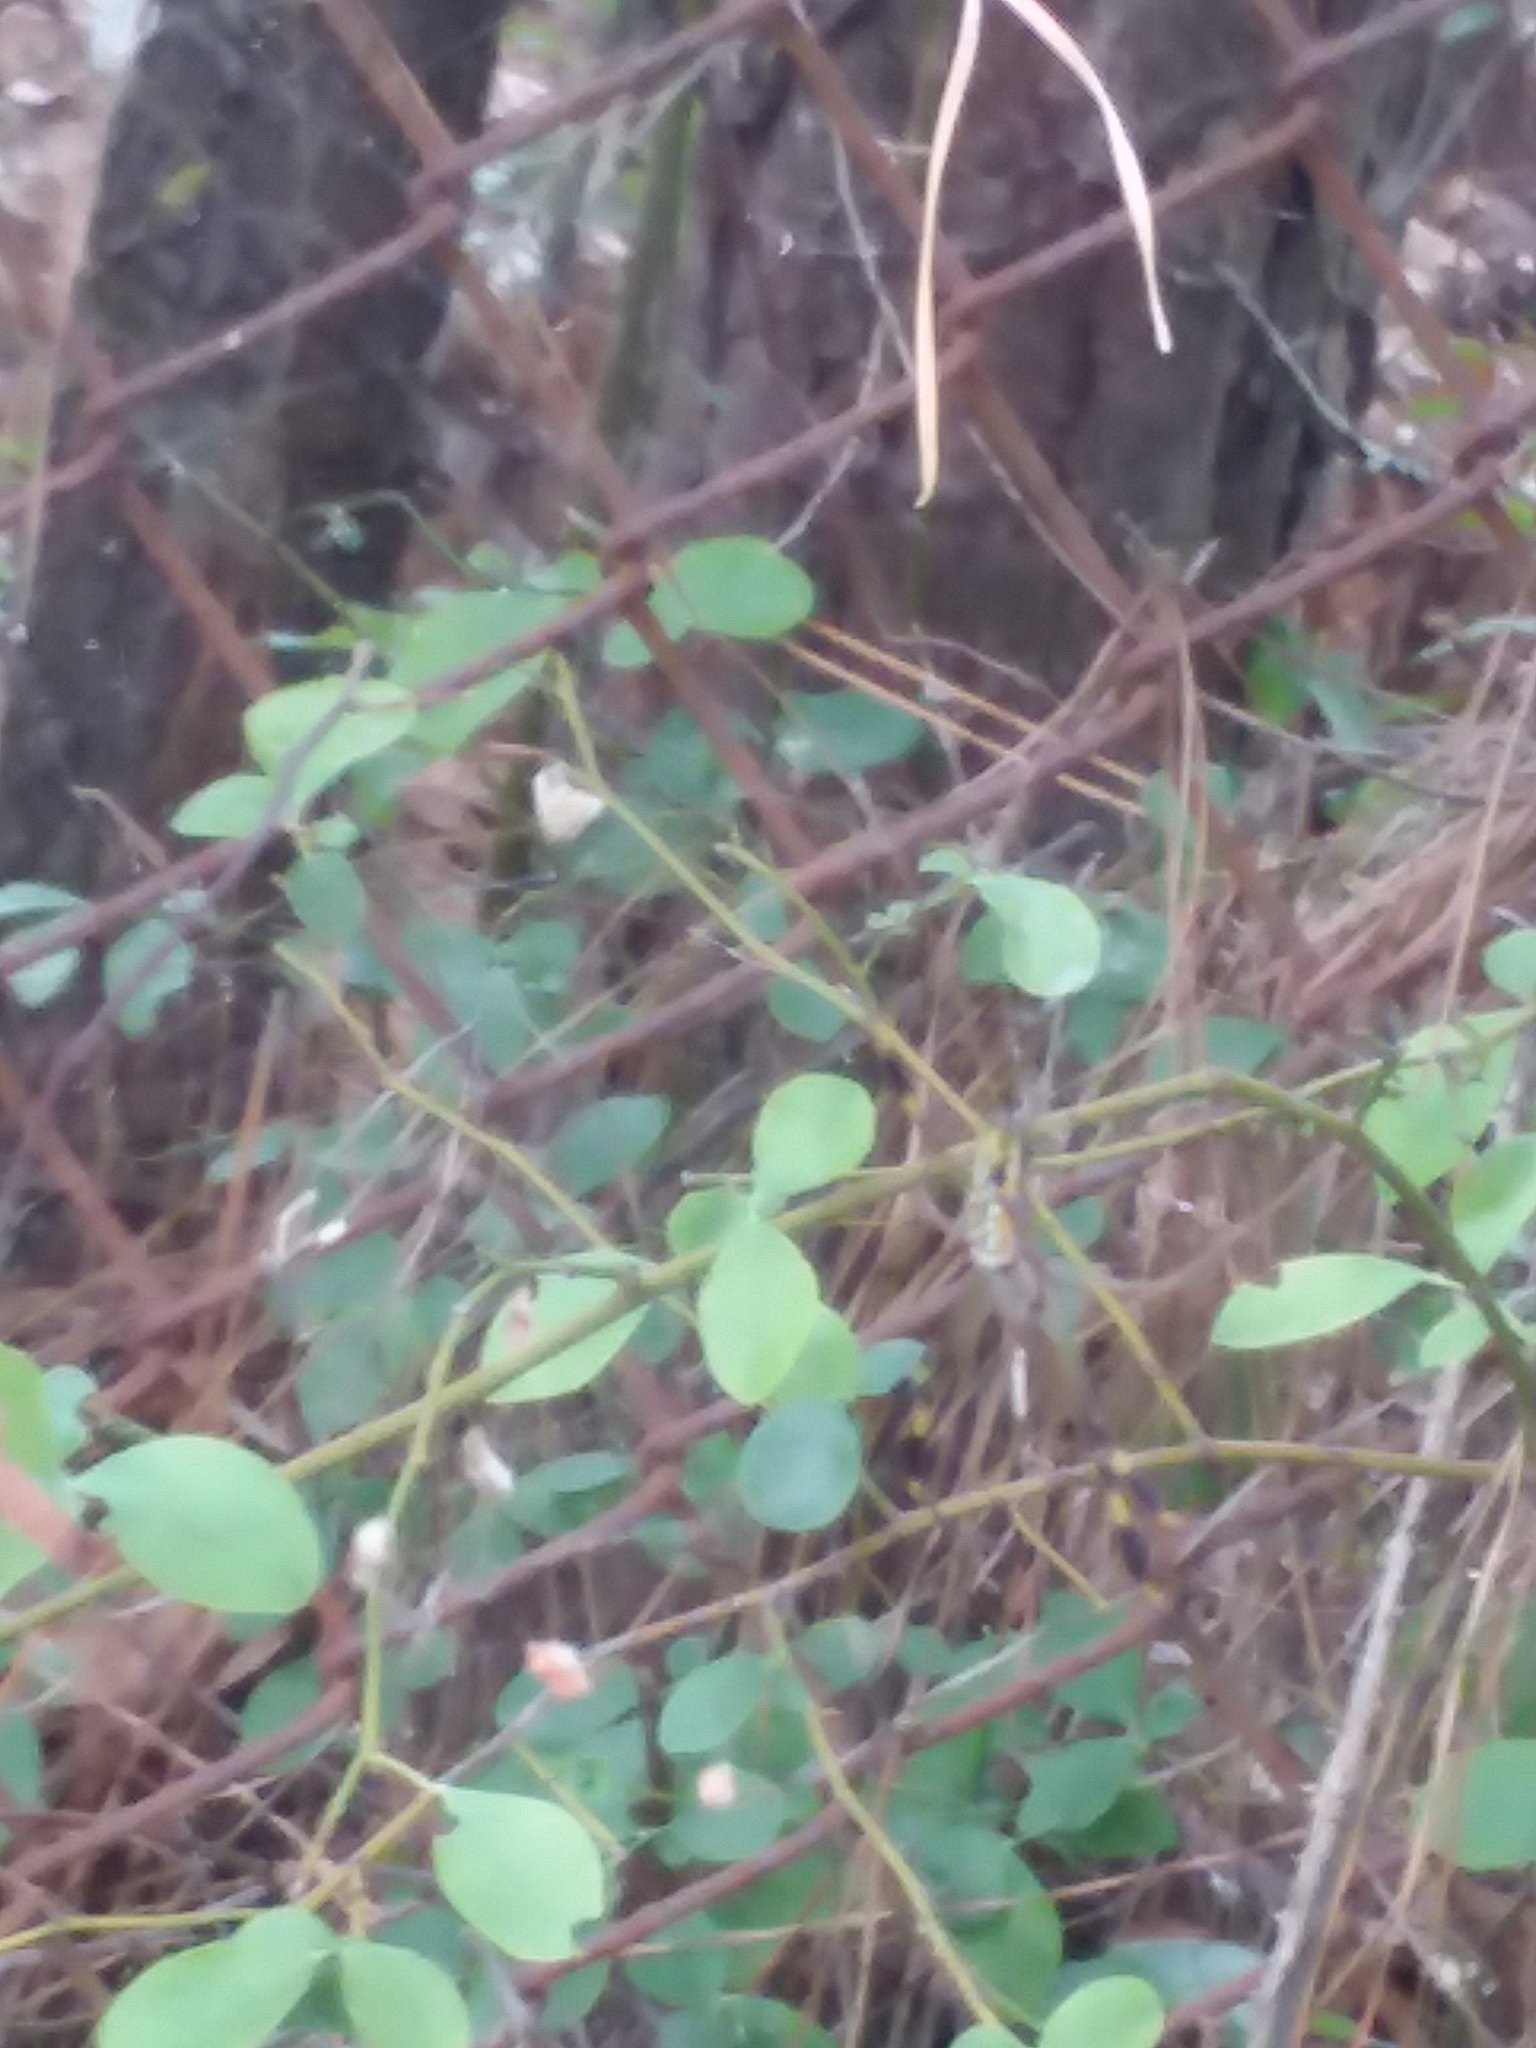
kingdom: Animalia
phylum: Arthropoda
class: Arachnida
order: Araneae
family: Araneidae
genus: Trichonephila
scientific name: Trichonephila clavipes
